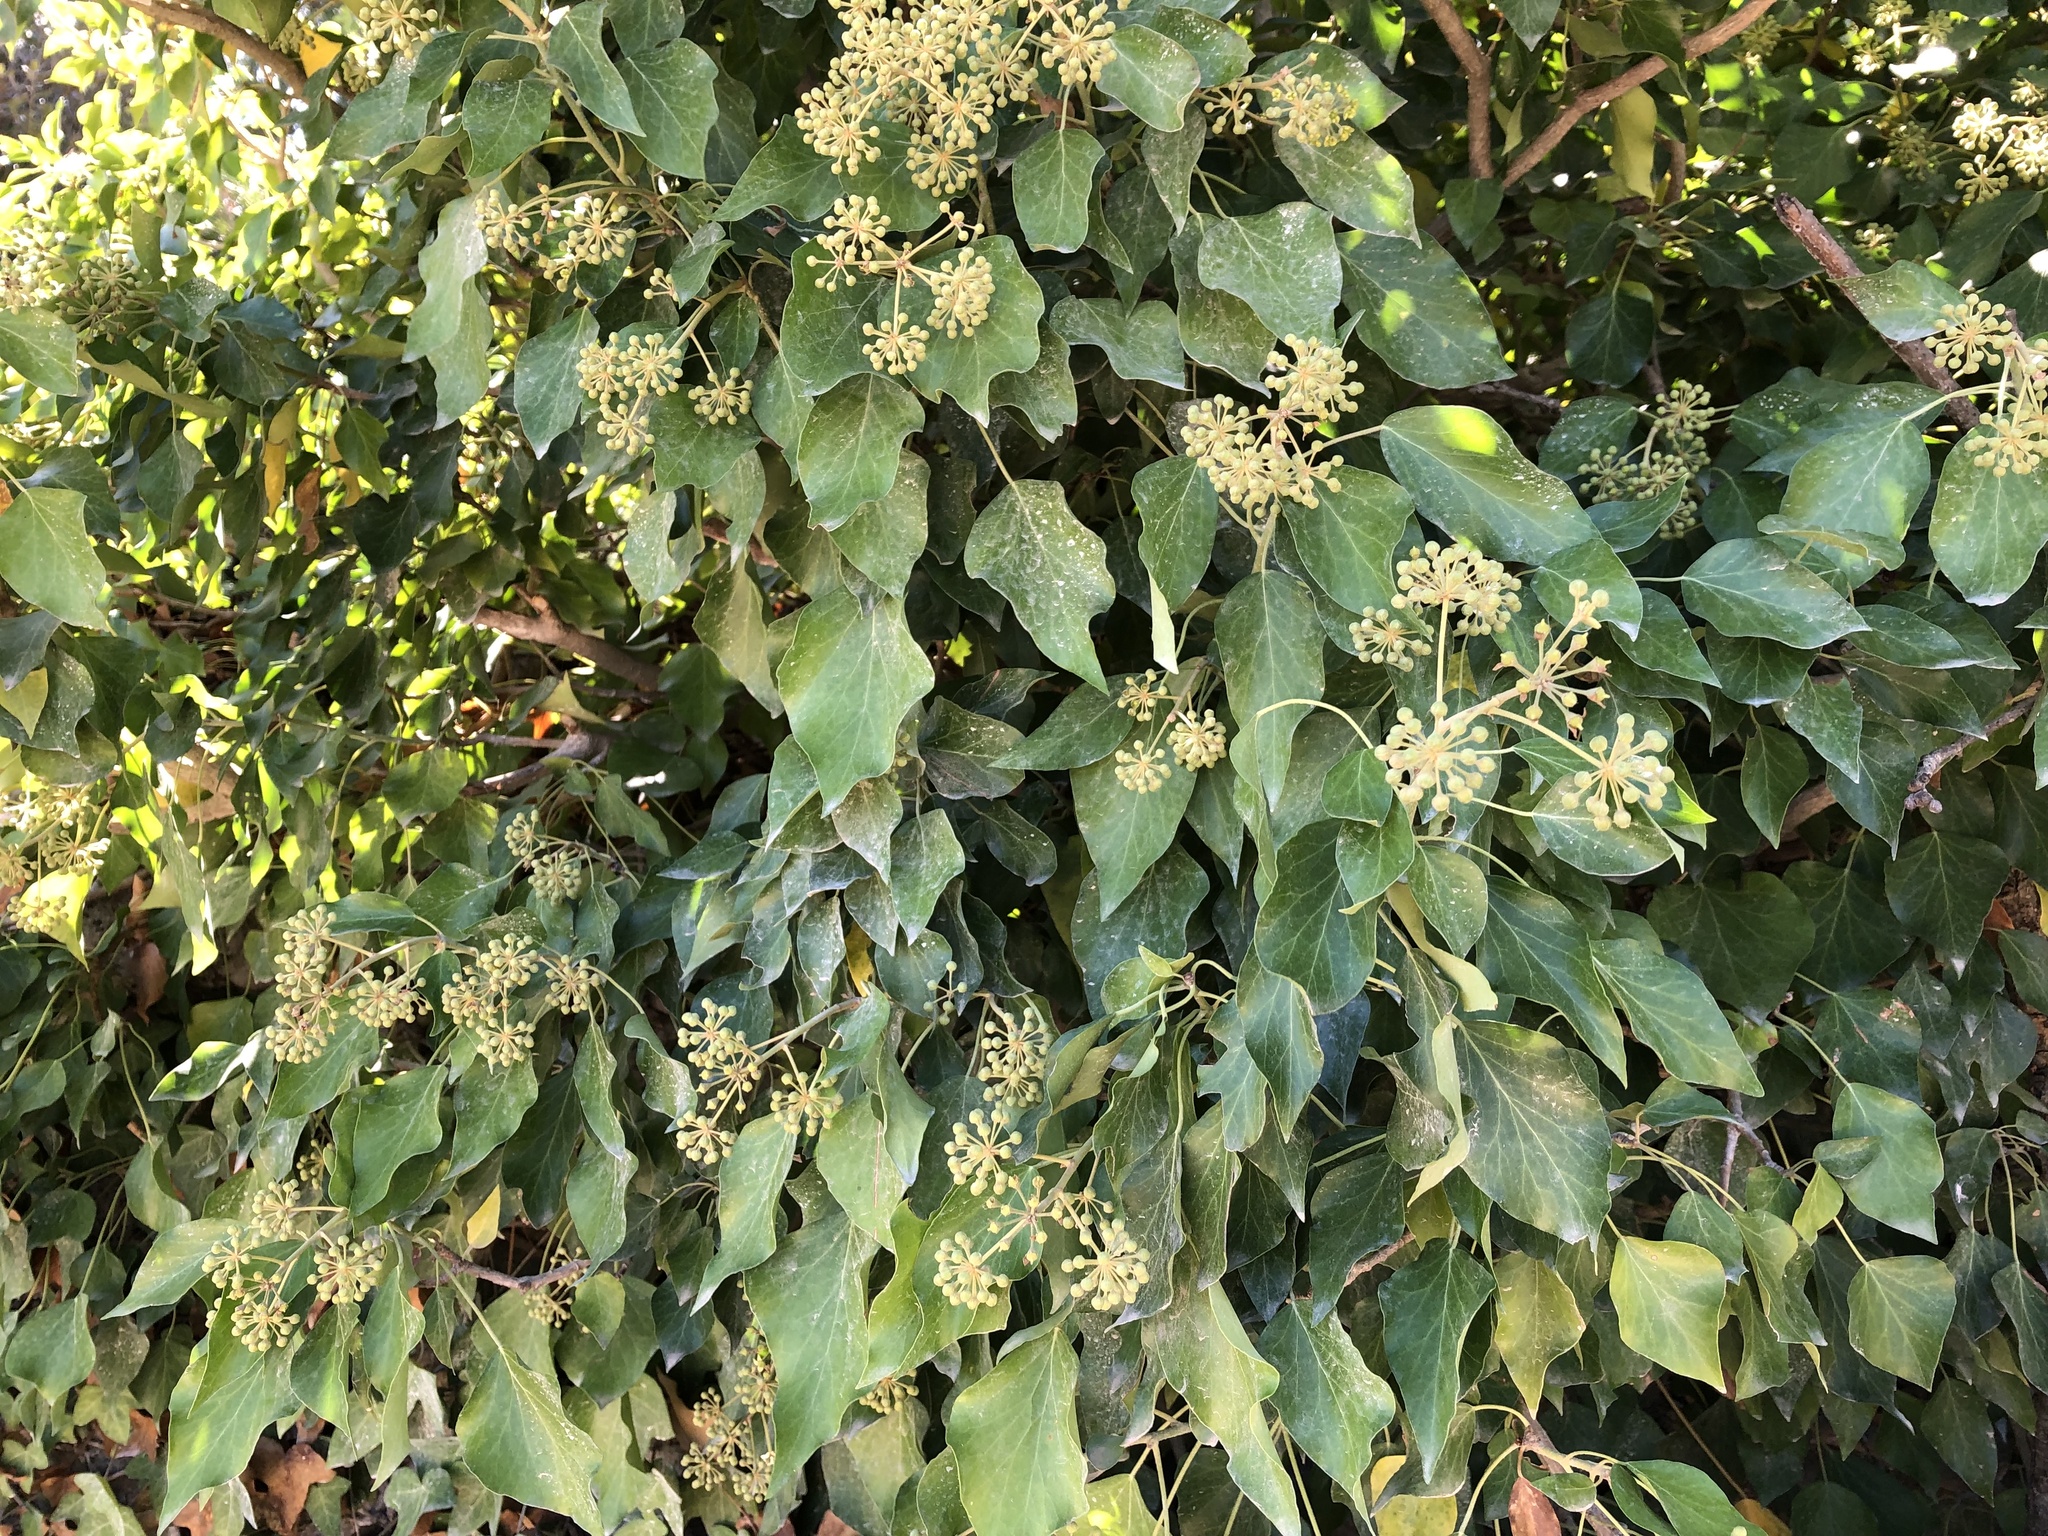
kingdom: Plantae
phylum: Tracheophyta
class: Magnoliopsida
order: Apiales
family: Araliaceae
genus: Hedera
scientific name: Hedera helix
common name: Ivy
